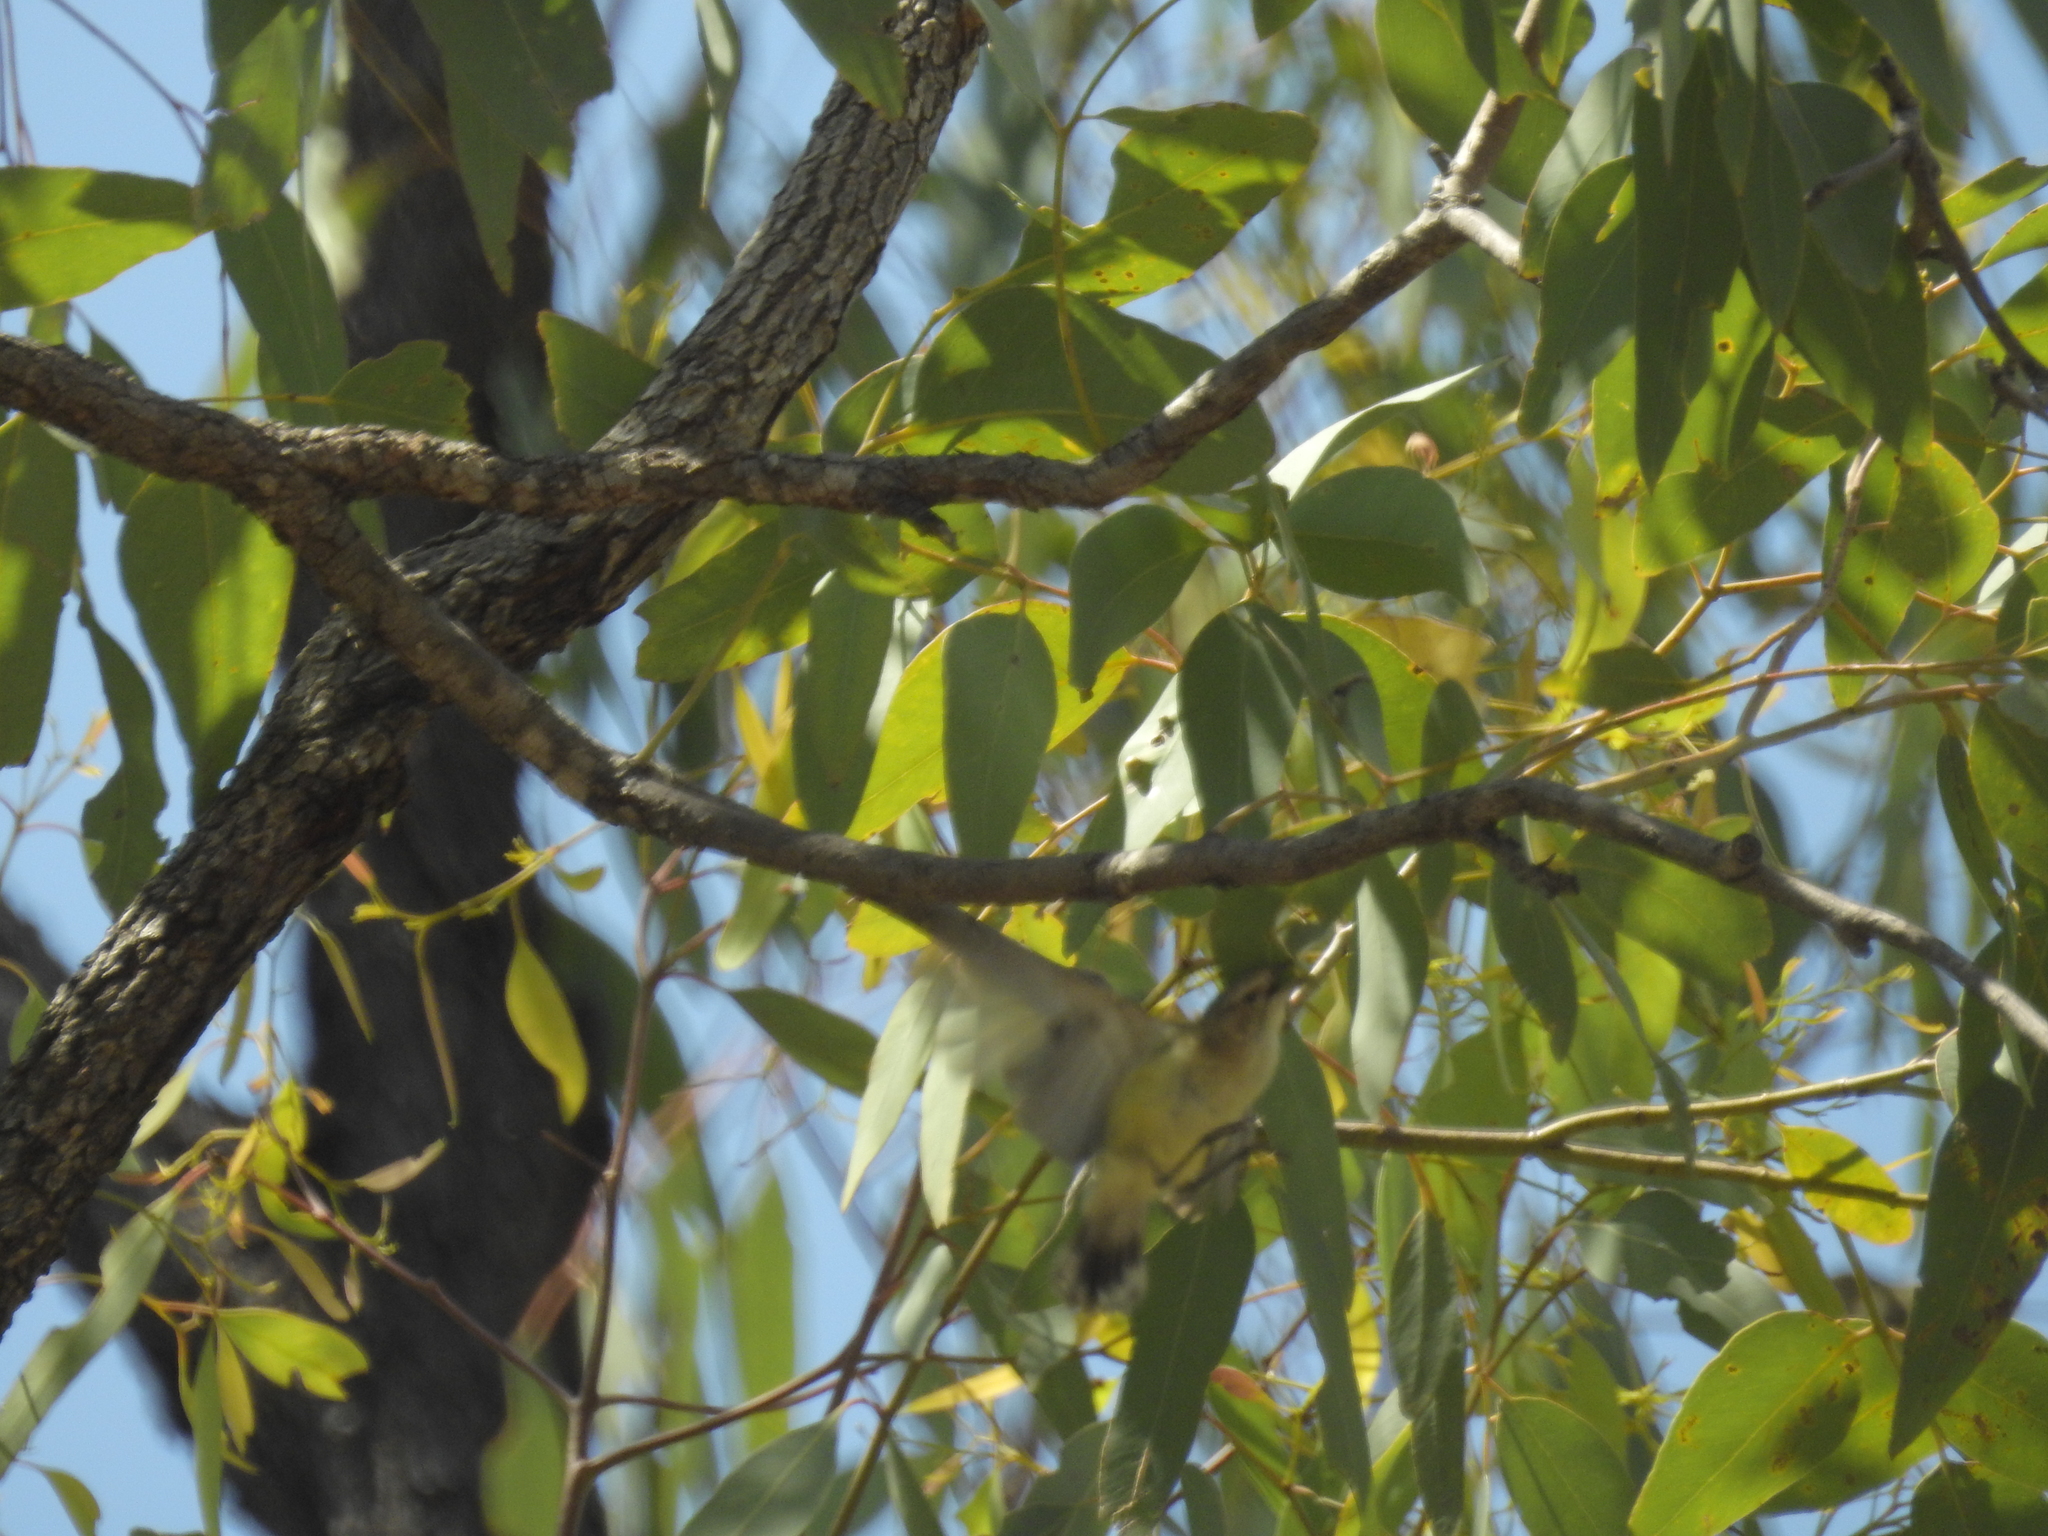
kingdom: Animalia
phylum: Chordata
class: Aves
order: Passeriformes
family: Acanthizidae
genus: Smicrornis
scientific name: Smicrornis brevirostris
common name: Weebill
